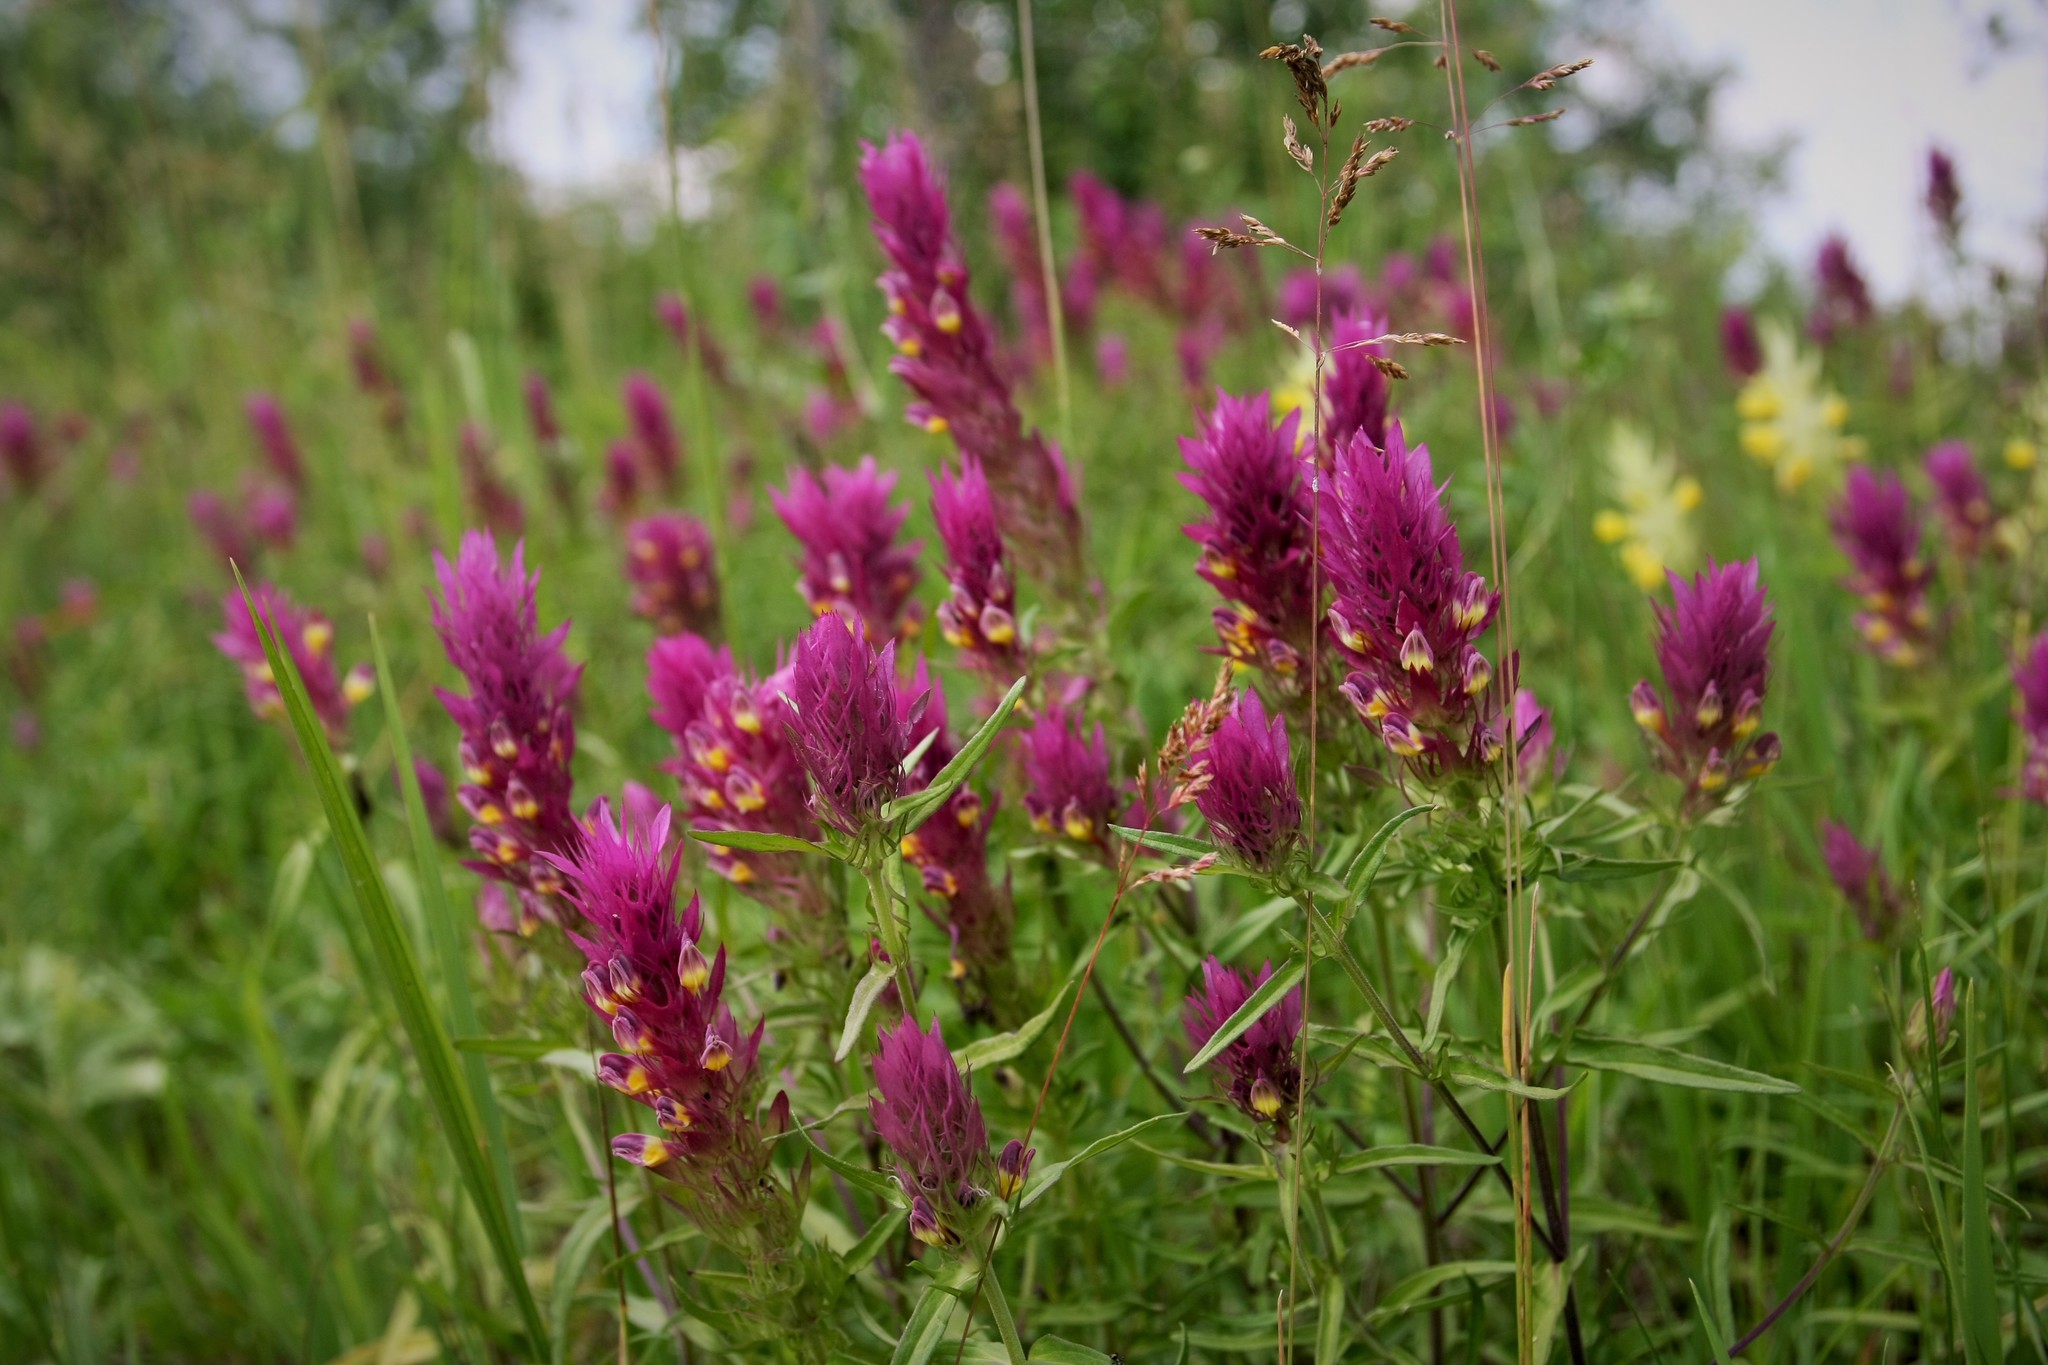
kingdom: Plantae
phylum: Tracheophyta
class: Magnoliopsida
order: Lamiales
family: Orobanchaceae
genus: Melampyrum
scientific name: Melampyrum arvense
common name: Field cow-wheat
